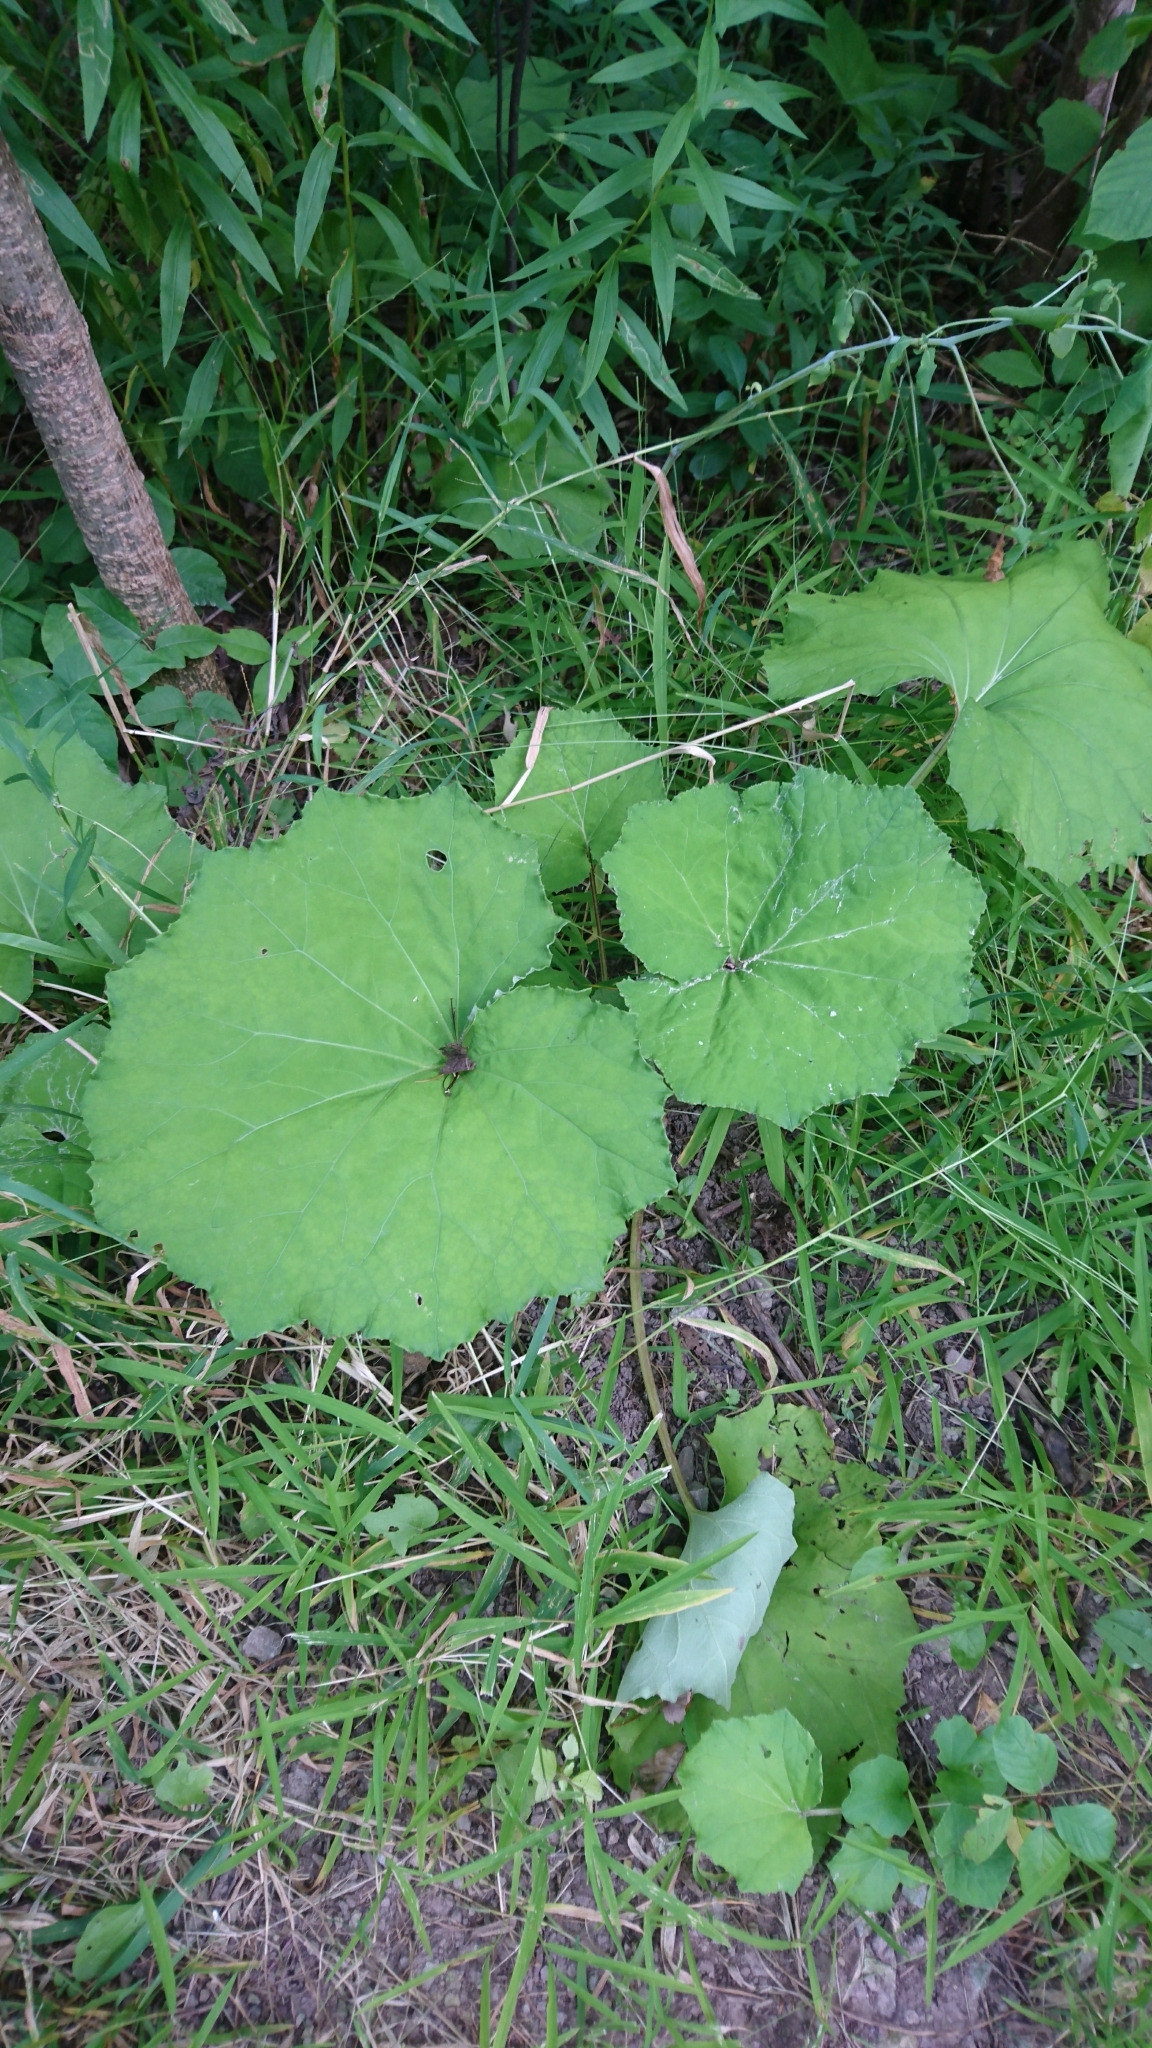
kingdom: Plantae
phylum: Tracheophyta
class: Magnoliopsida
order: Asterales
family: Asteraceae
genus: Tussilago
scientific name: Tussilago farfara
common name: Coltsfoot
